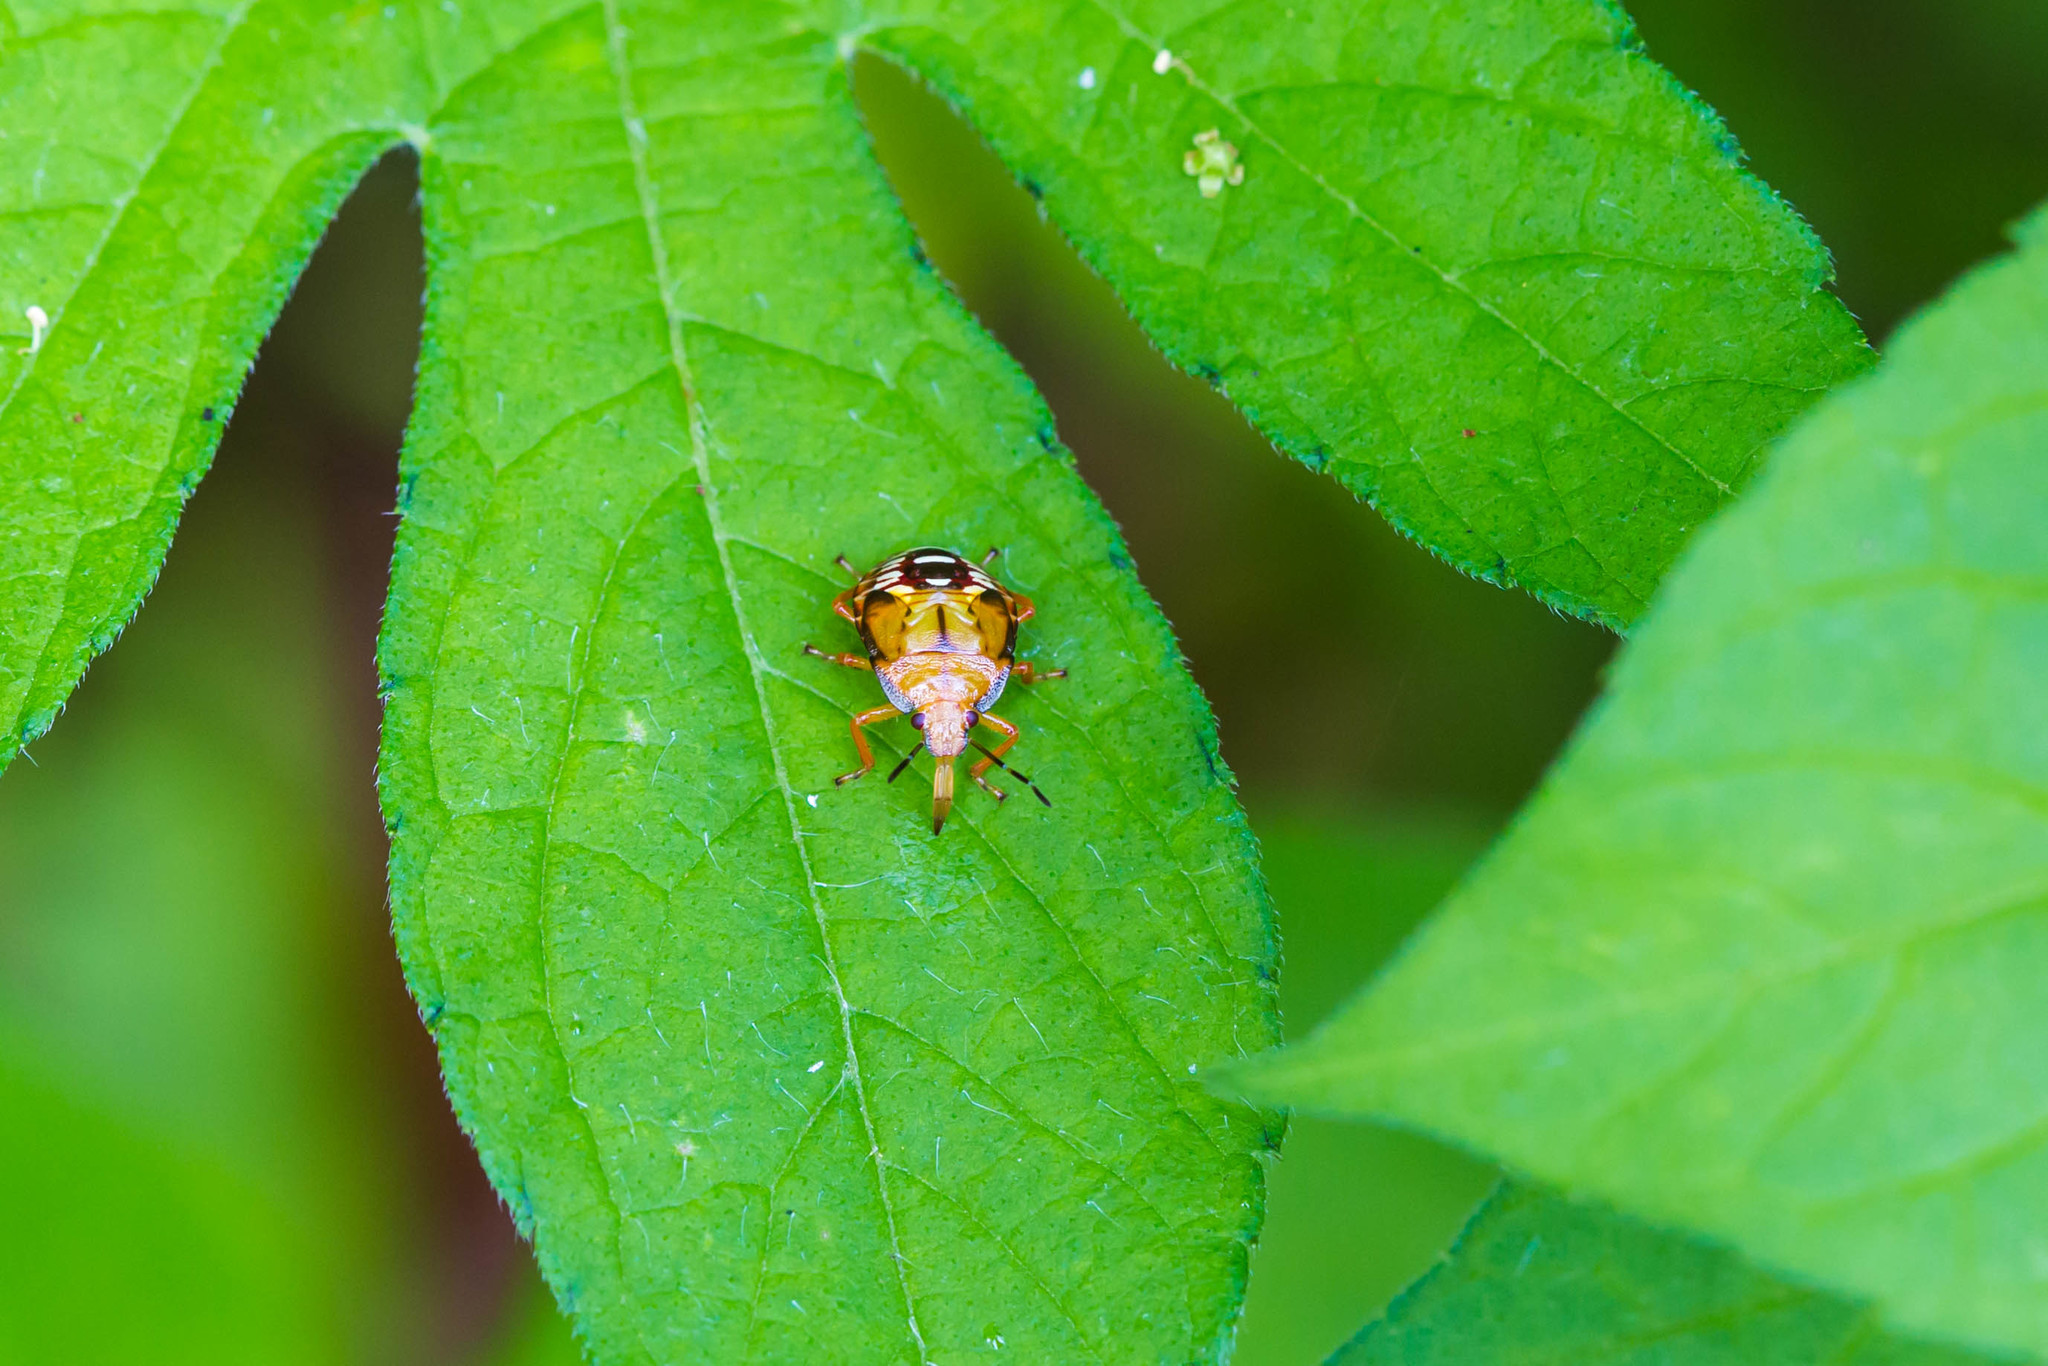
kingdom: Animalia
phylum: Arthropoda
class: Insecta
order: Hemiptera
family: Pentatomidae
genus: Podisus
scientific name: Podisus maculiventris
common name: Spined soldier bug
